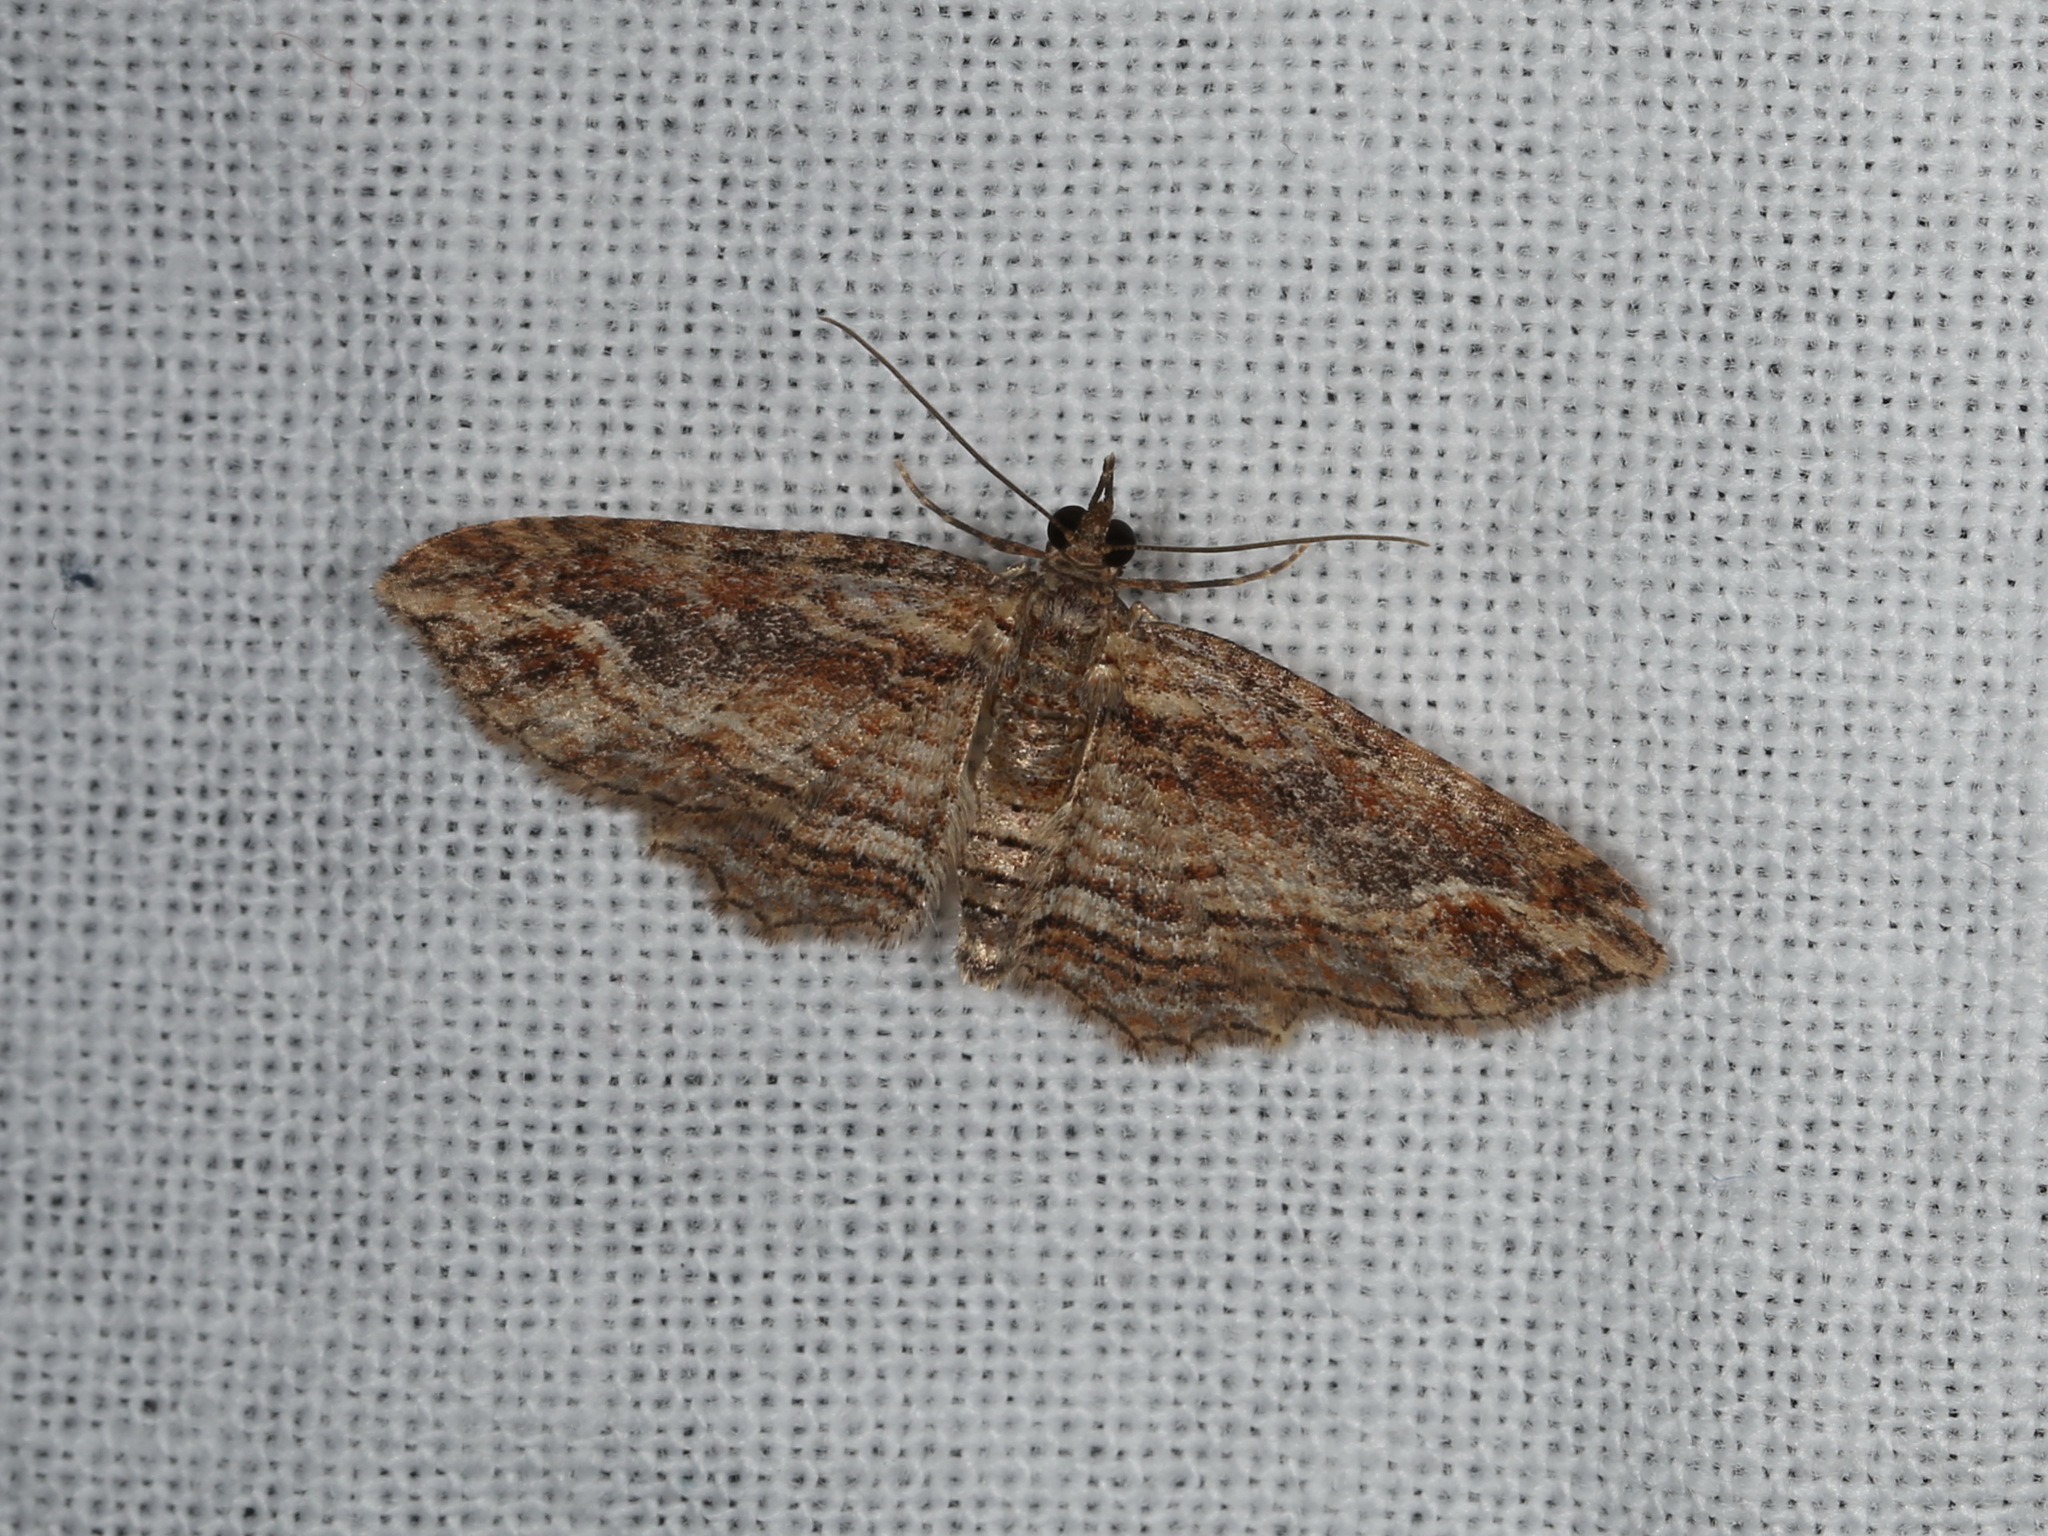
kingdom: Animalia
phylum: Arthropoda
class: Insecta
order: Lepidoptera
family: Geometridae
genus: Chloroclystis
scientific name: Chloroclystis filata
